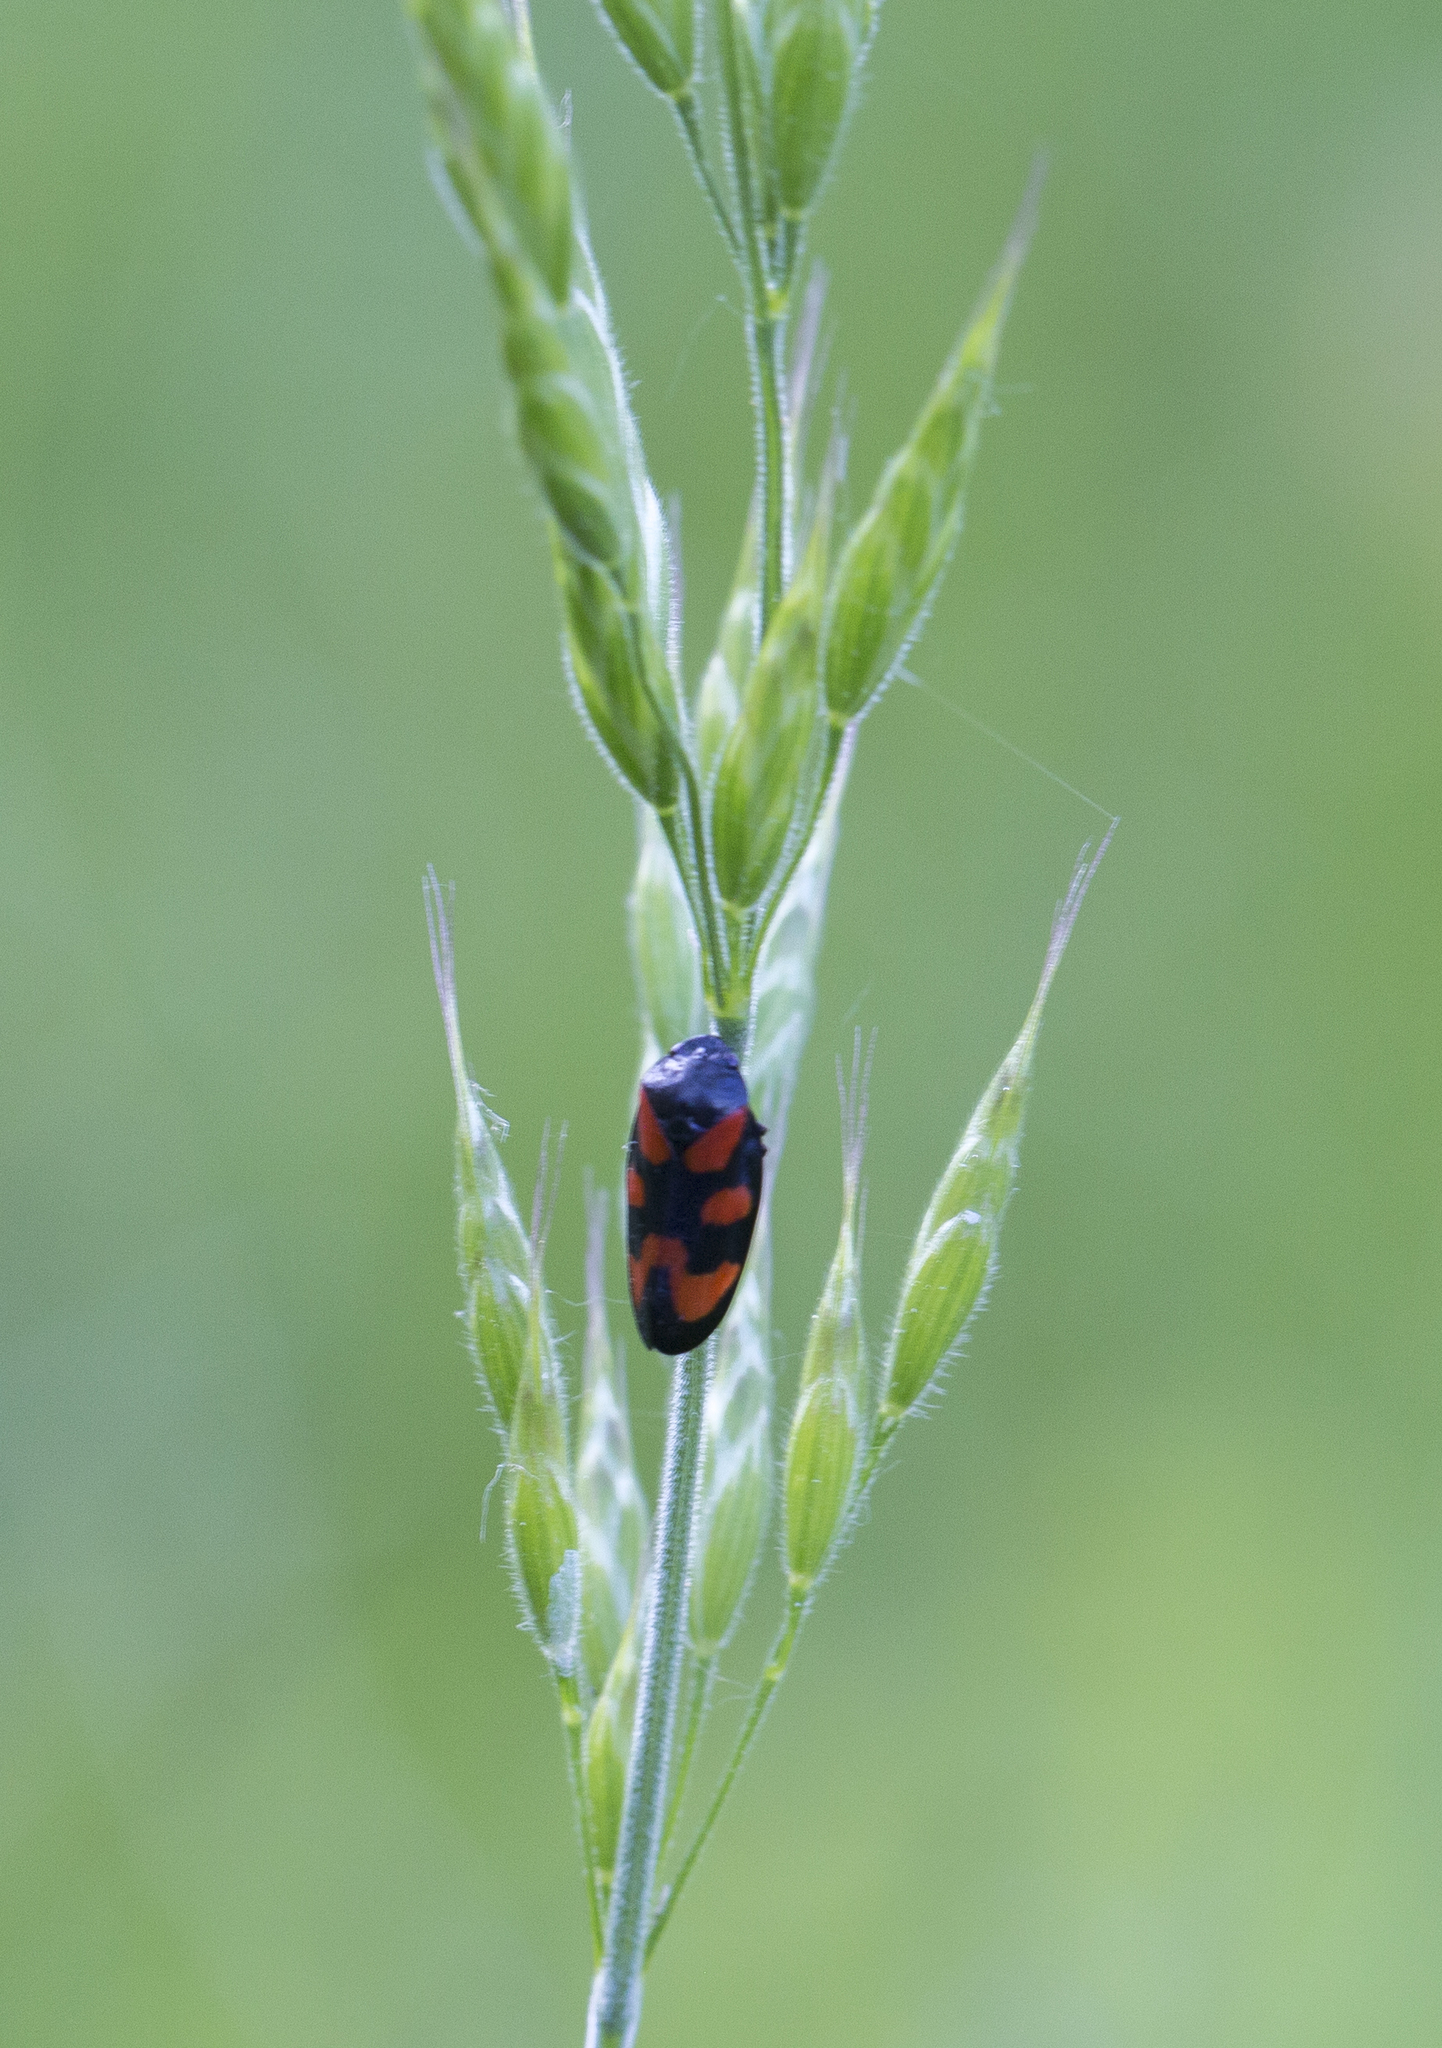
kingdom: Animalia
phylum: Arthropoda
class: Insecta
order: Hemiptera
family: Cercopidae
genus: Cercopis
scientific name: Cercopis vulnerata
